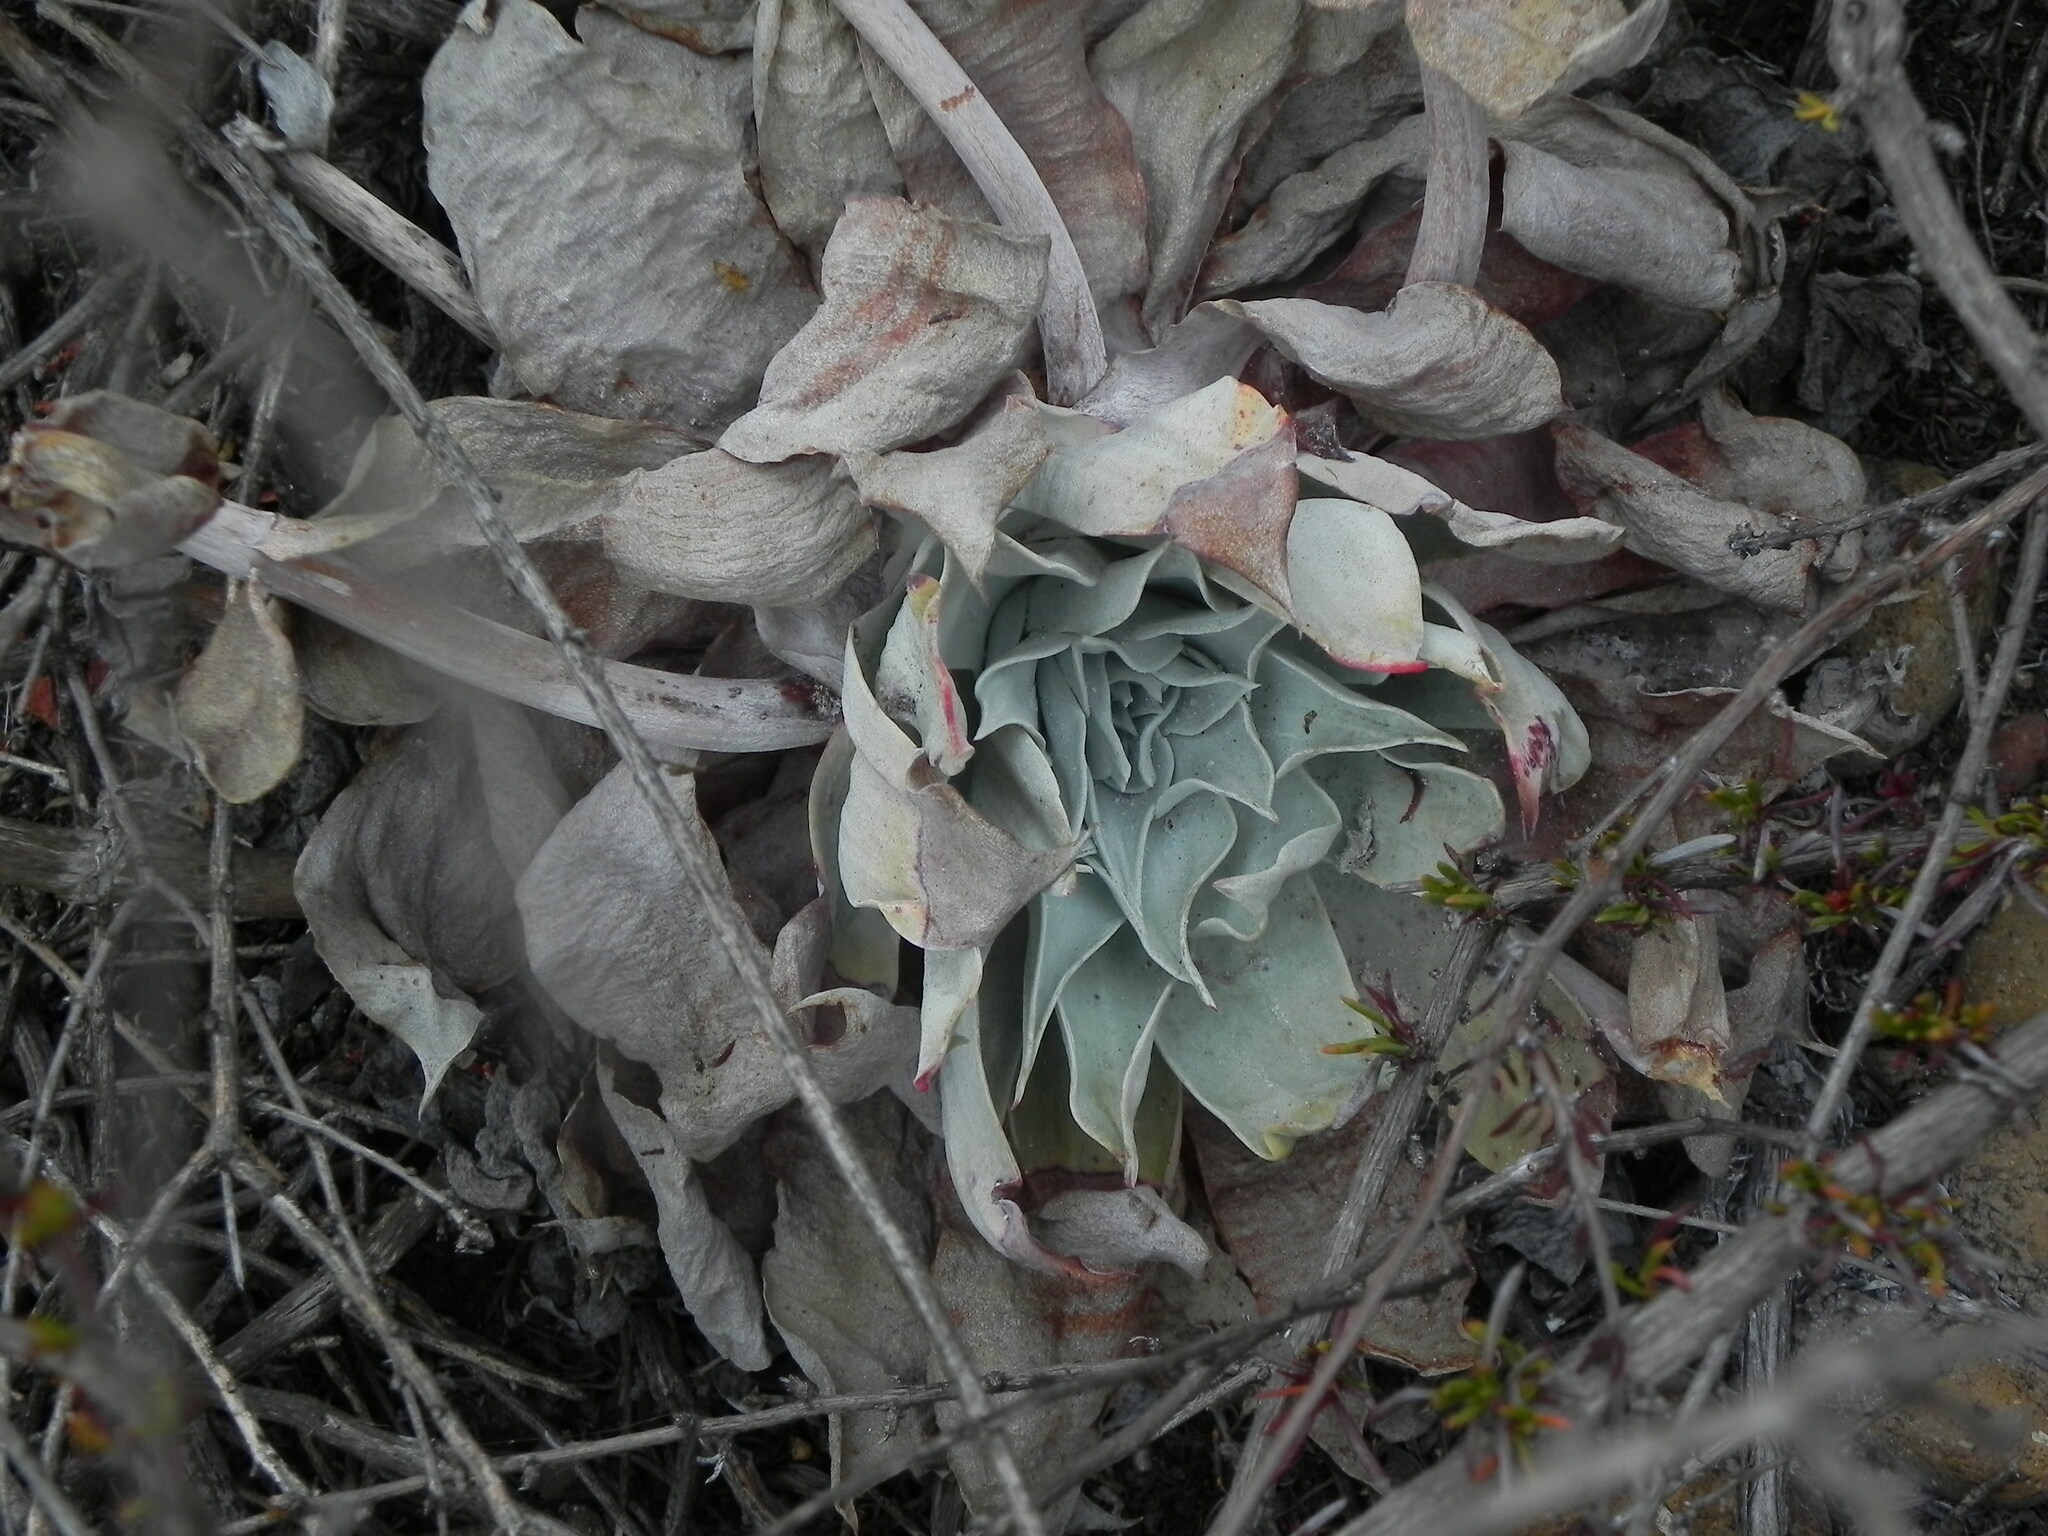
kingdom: Plantae
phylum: Tracheophyta
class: Magnoliopsida
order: Saxifragales
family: Crassulaceae
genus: Dudleya
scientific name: Dudleya pulverulenta
